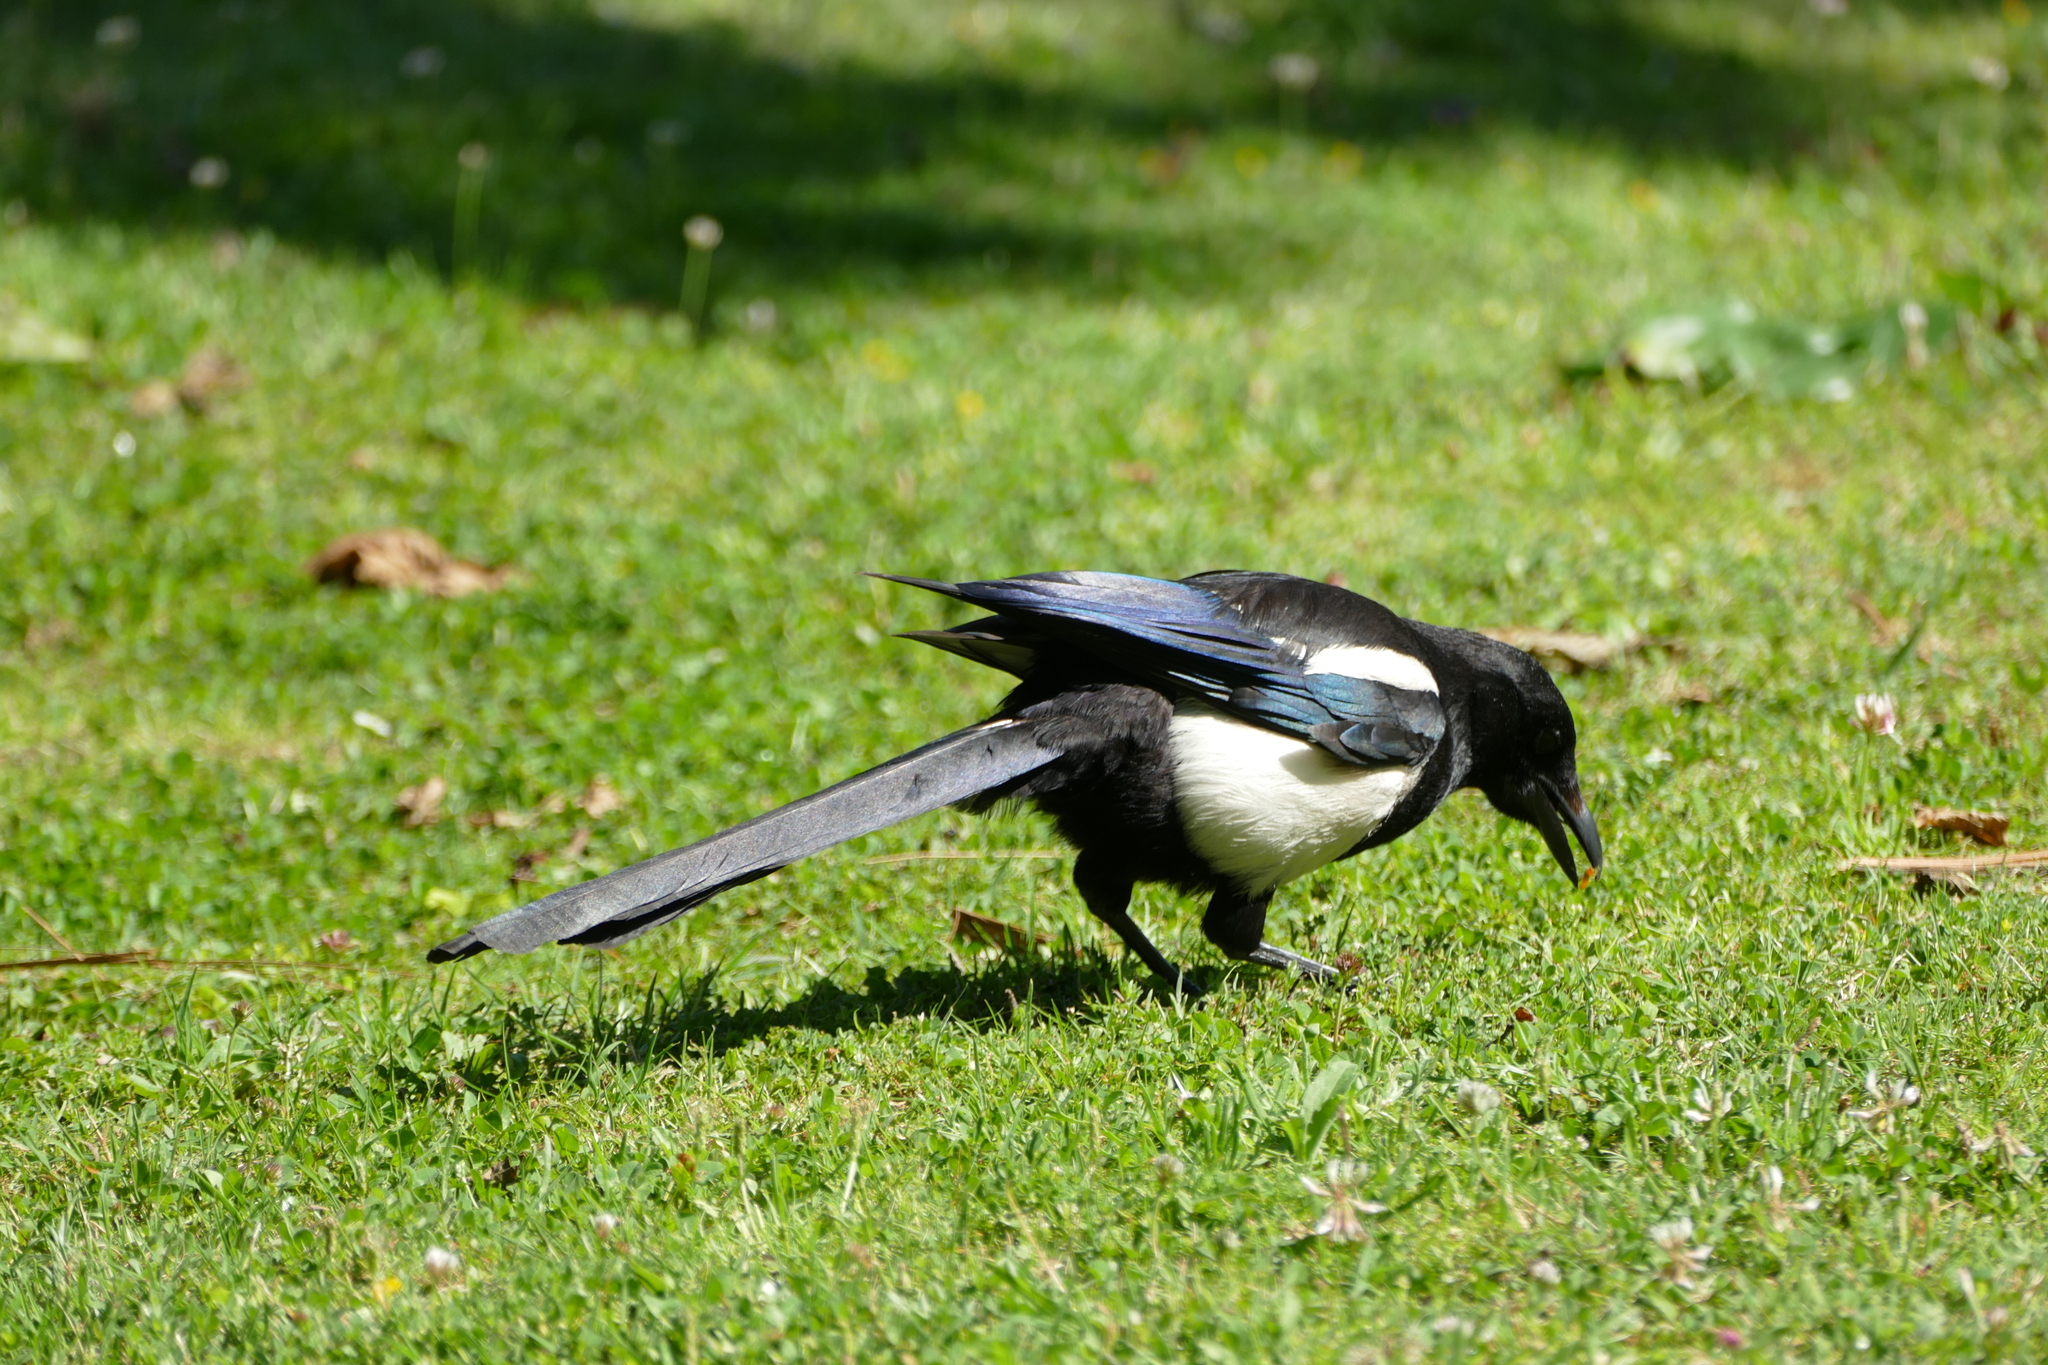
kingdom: Animalia
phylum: Chordata
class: Aves
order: Passeriformes
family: Corvidae
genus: Pica
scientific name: Pica pica
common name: Eurasian magpie
